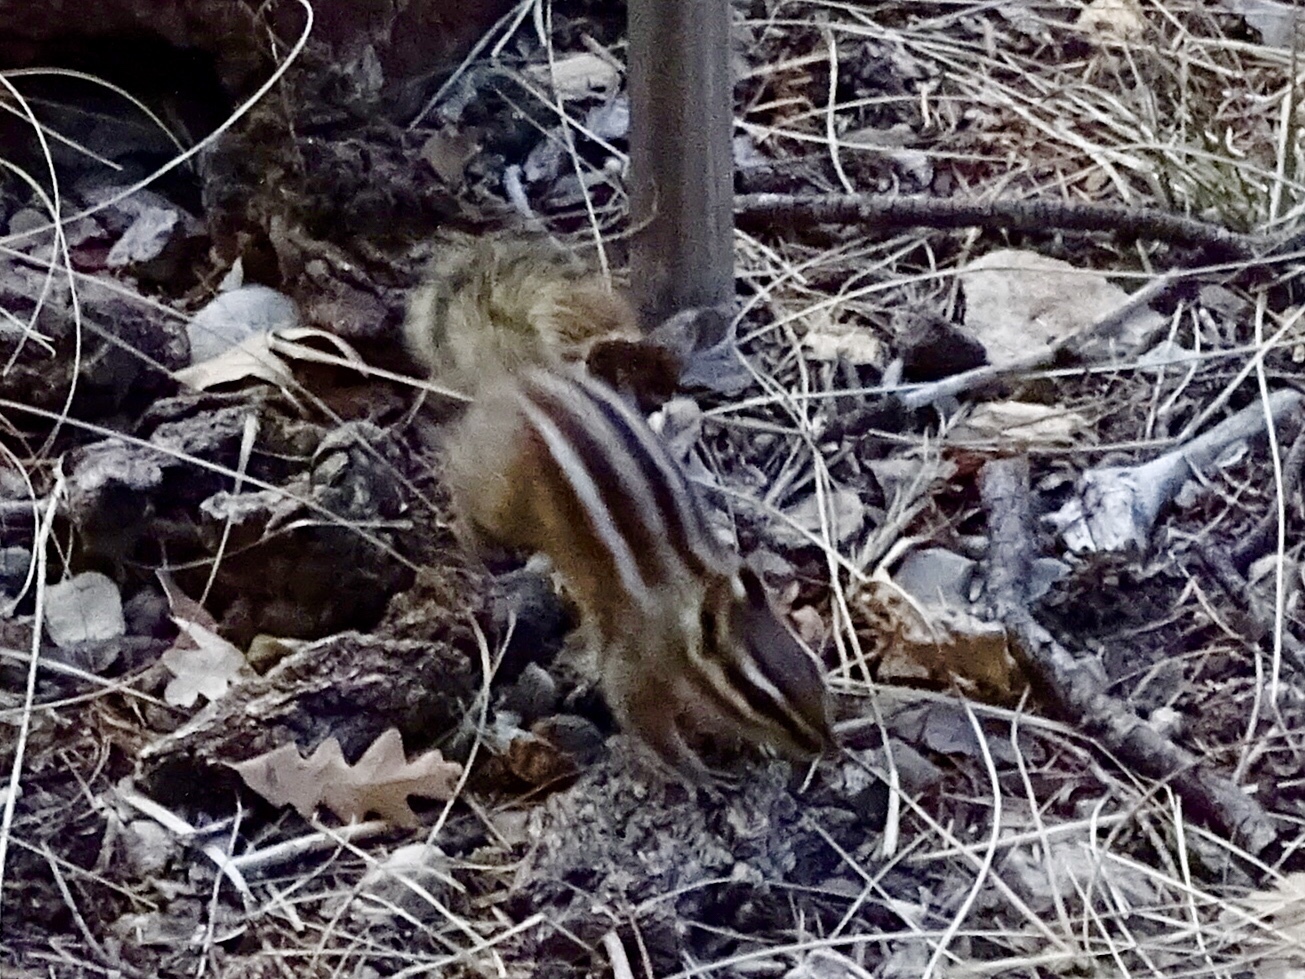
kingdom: Animalia
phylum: Chordata
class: Mammalia
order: Rodentia
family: Sciuridae
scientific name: Sciuridae
